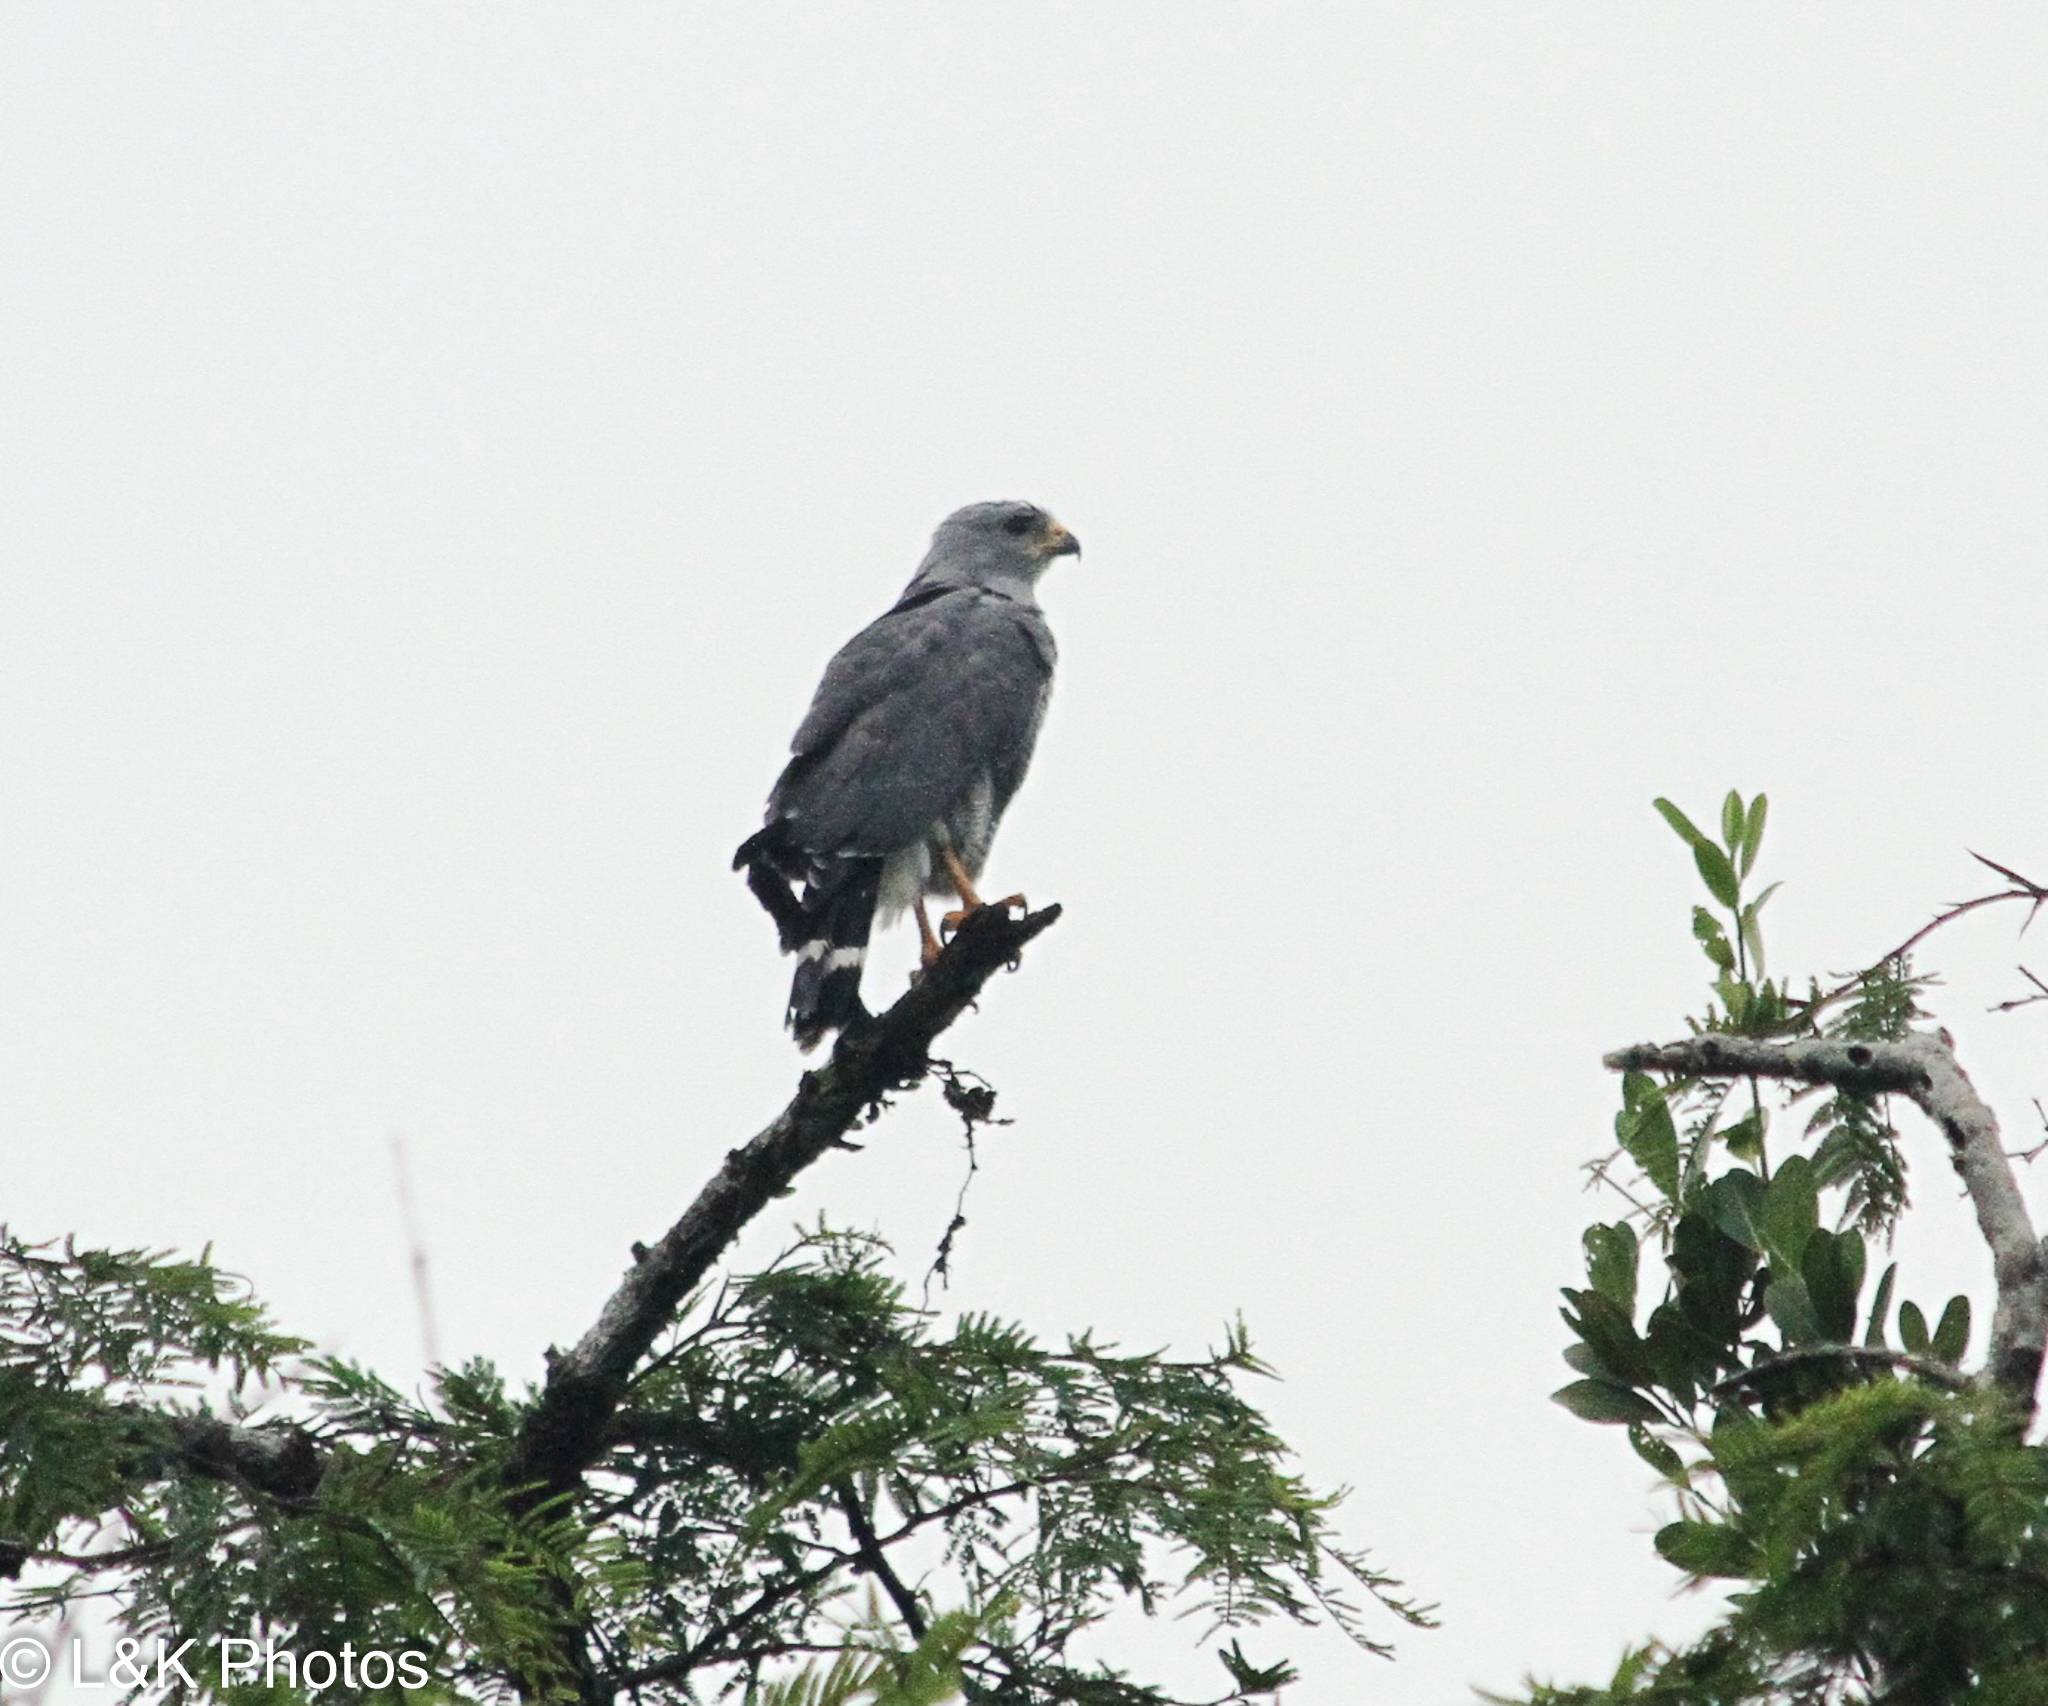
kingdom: Animalia
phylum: Chordata
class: Aves
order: Accipitriformes
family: Accipitridae
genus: Buteo
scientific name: Buteo nitidus
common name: Grey-lined hawk
